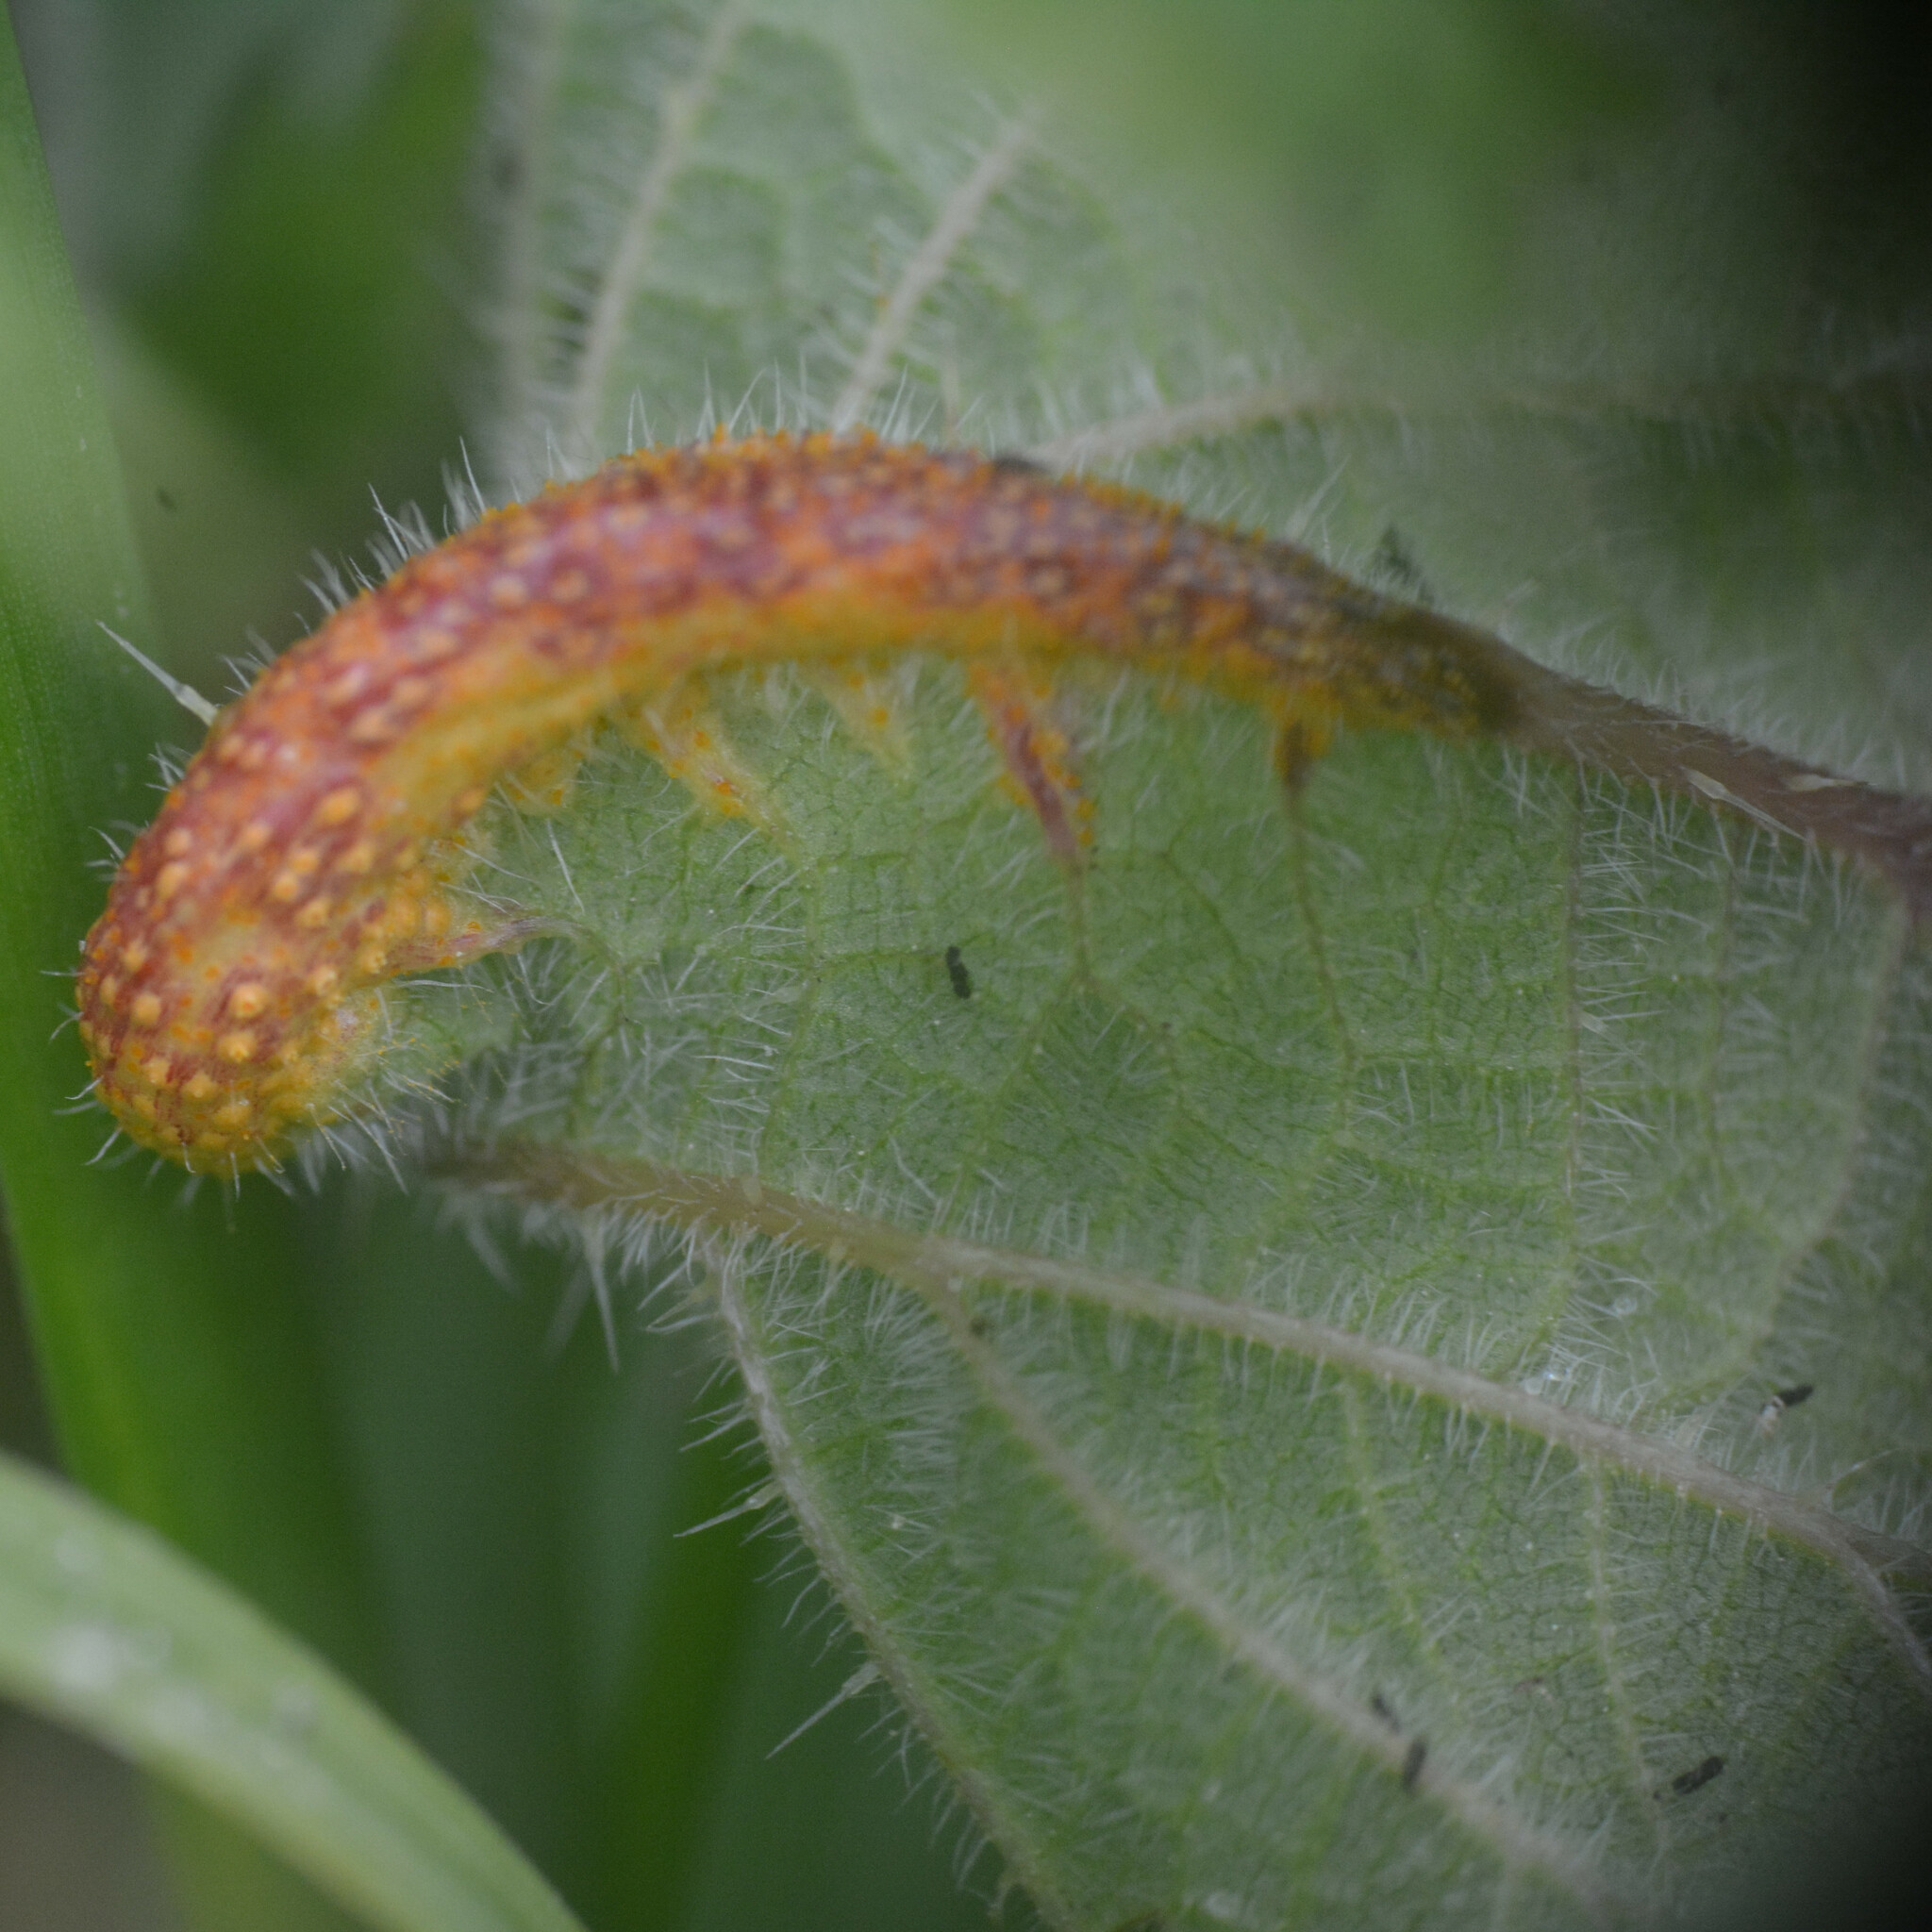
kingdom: Fungi
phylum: Basidiomycota
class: Pucciniomycetes
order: Pucciniales
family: Pucciniaceae
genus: Puccinia
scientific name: Puccinia urticata
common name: Nettle clustercup rust fungus
